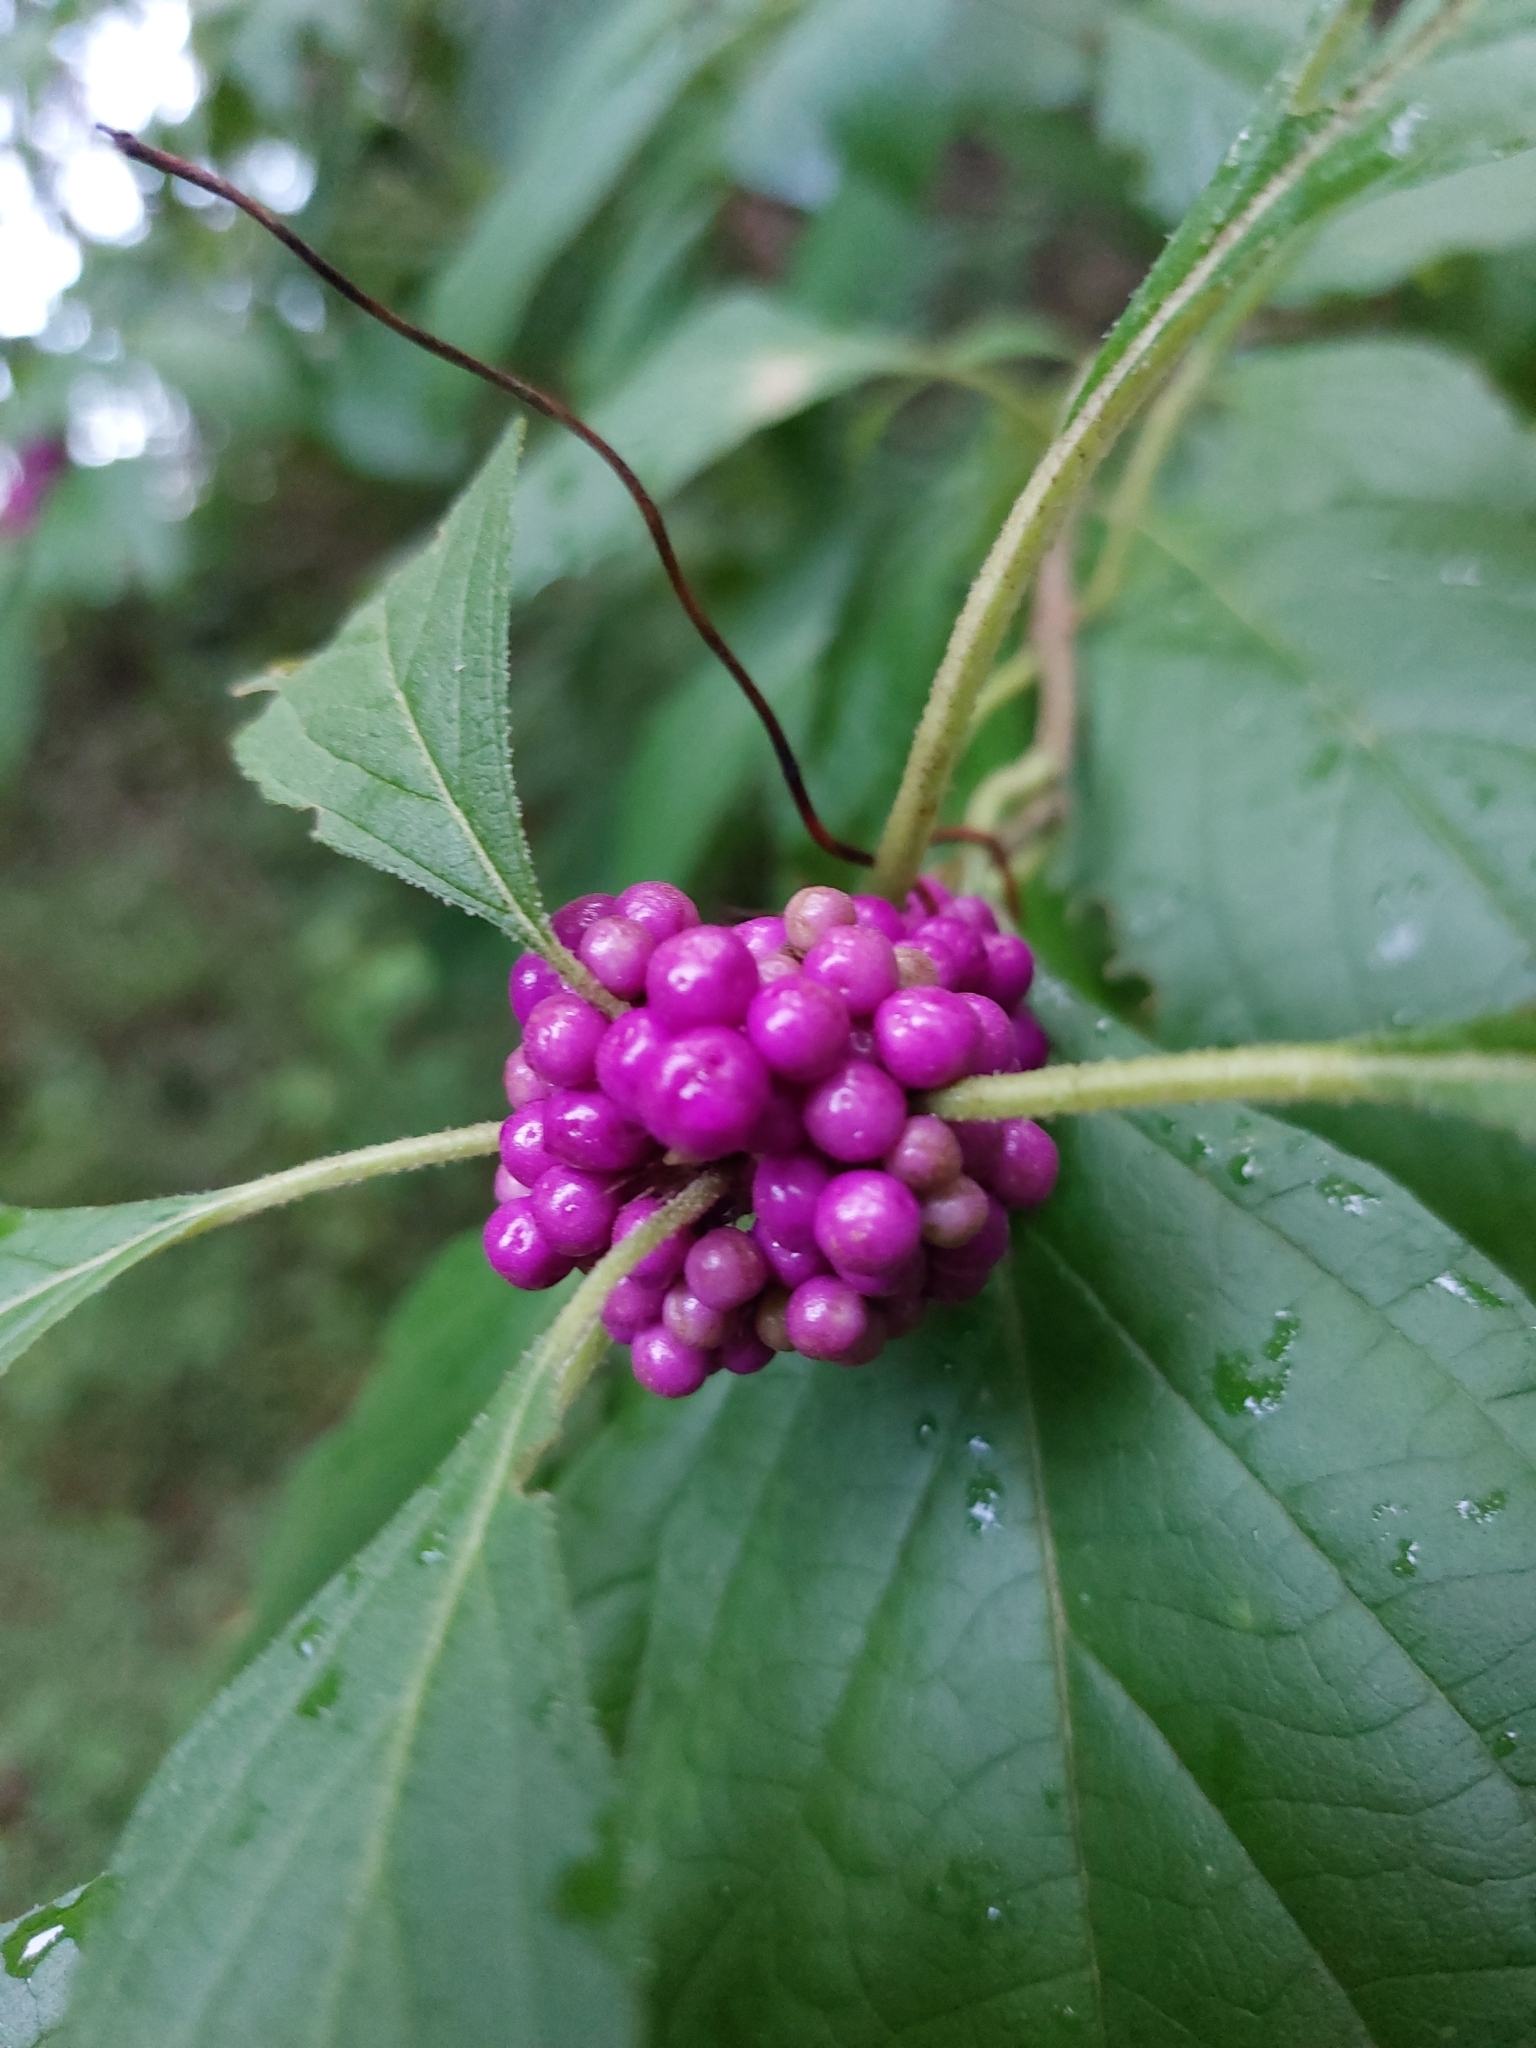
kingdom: Plantae
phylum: Tracheophyta
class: Magnoliopsida
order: Lamiales
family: Lamiaceae
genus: Callicarpa
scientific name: Callicarpa americana
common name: American beautyberry
